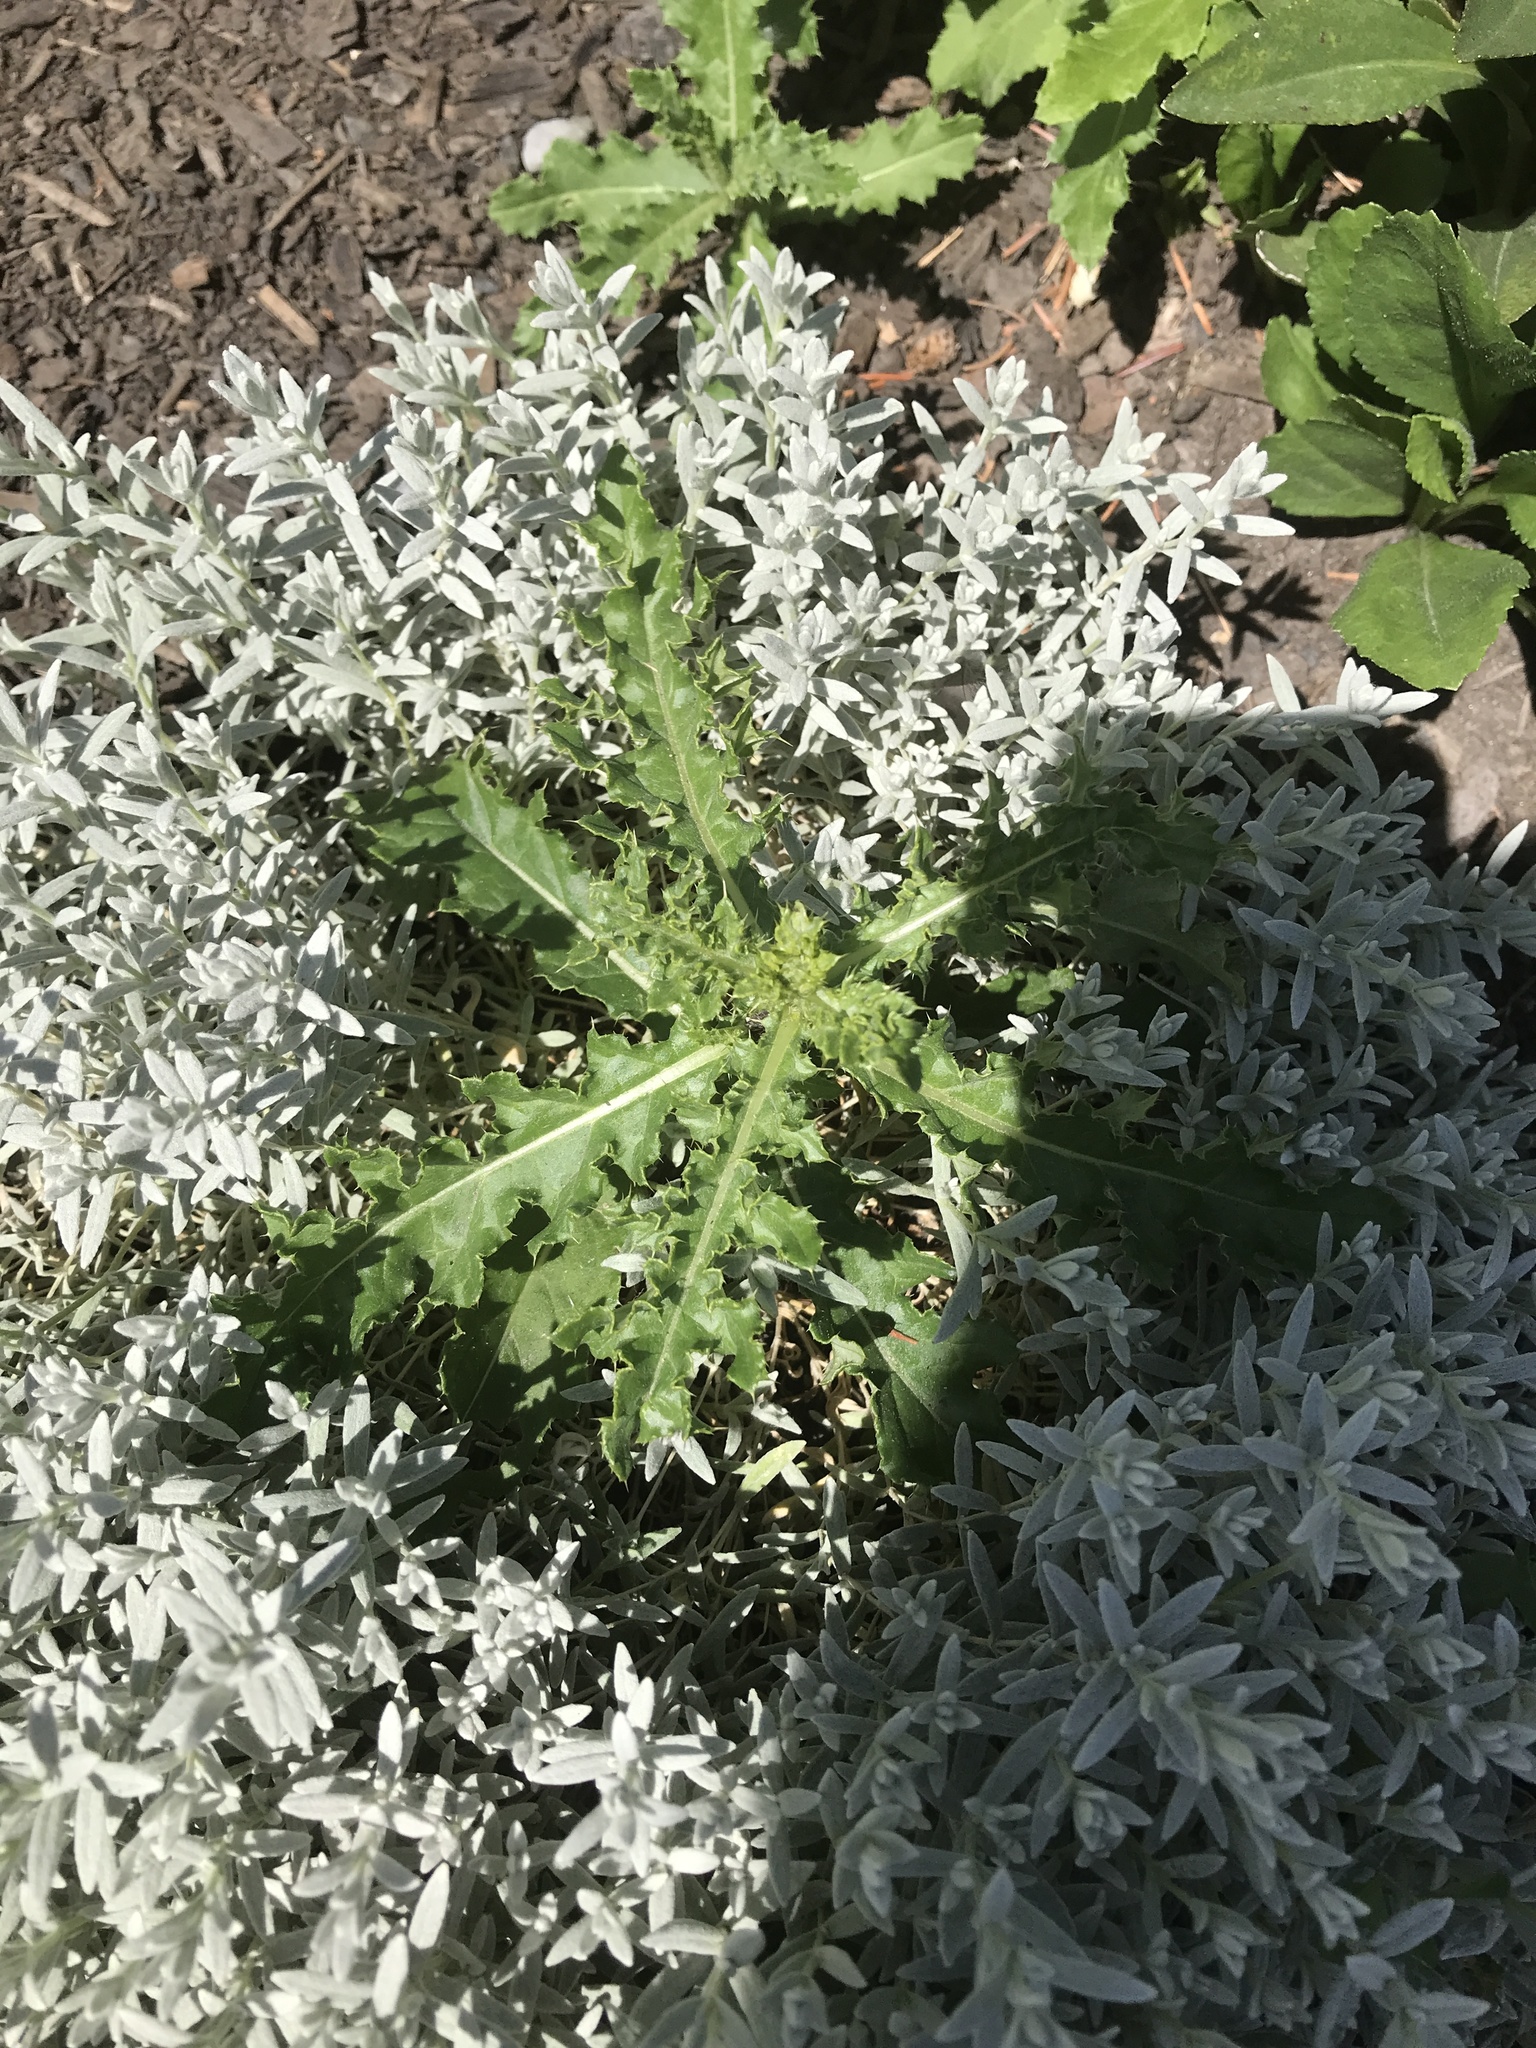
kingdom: Plantae
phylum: Tracheophyta
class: Magnoliopsida
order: Asterales
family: Asteraceae
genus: Cirsium
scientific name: Cirsium arvense
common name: Creeping thistle
